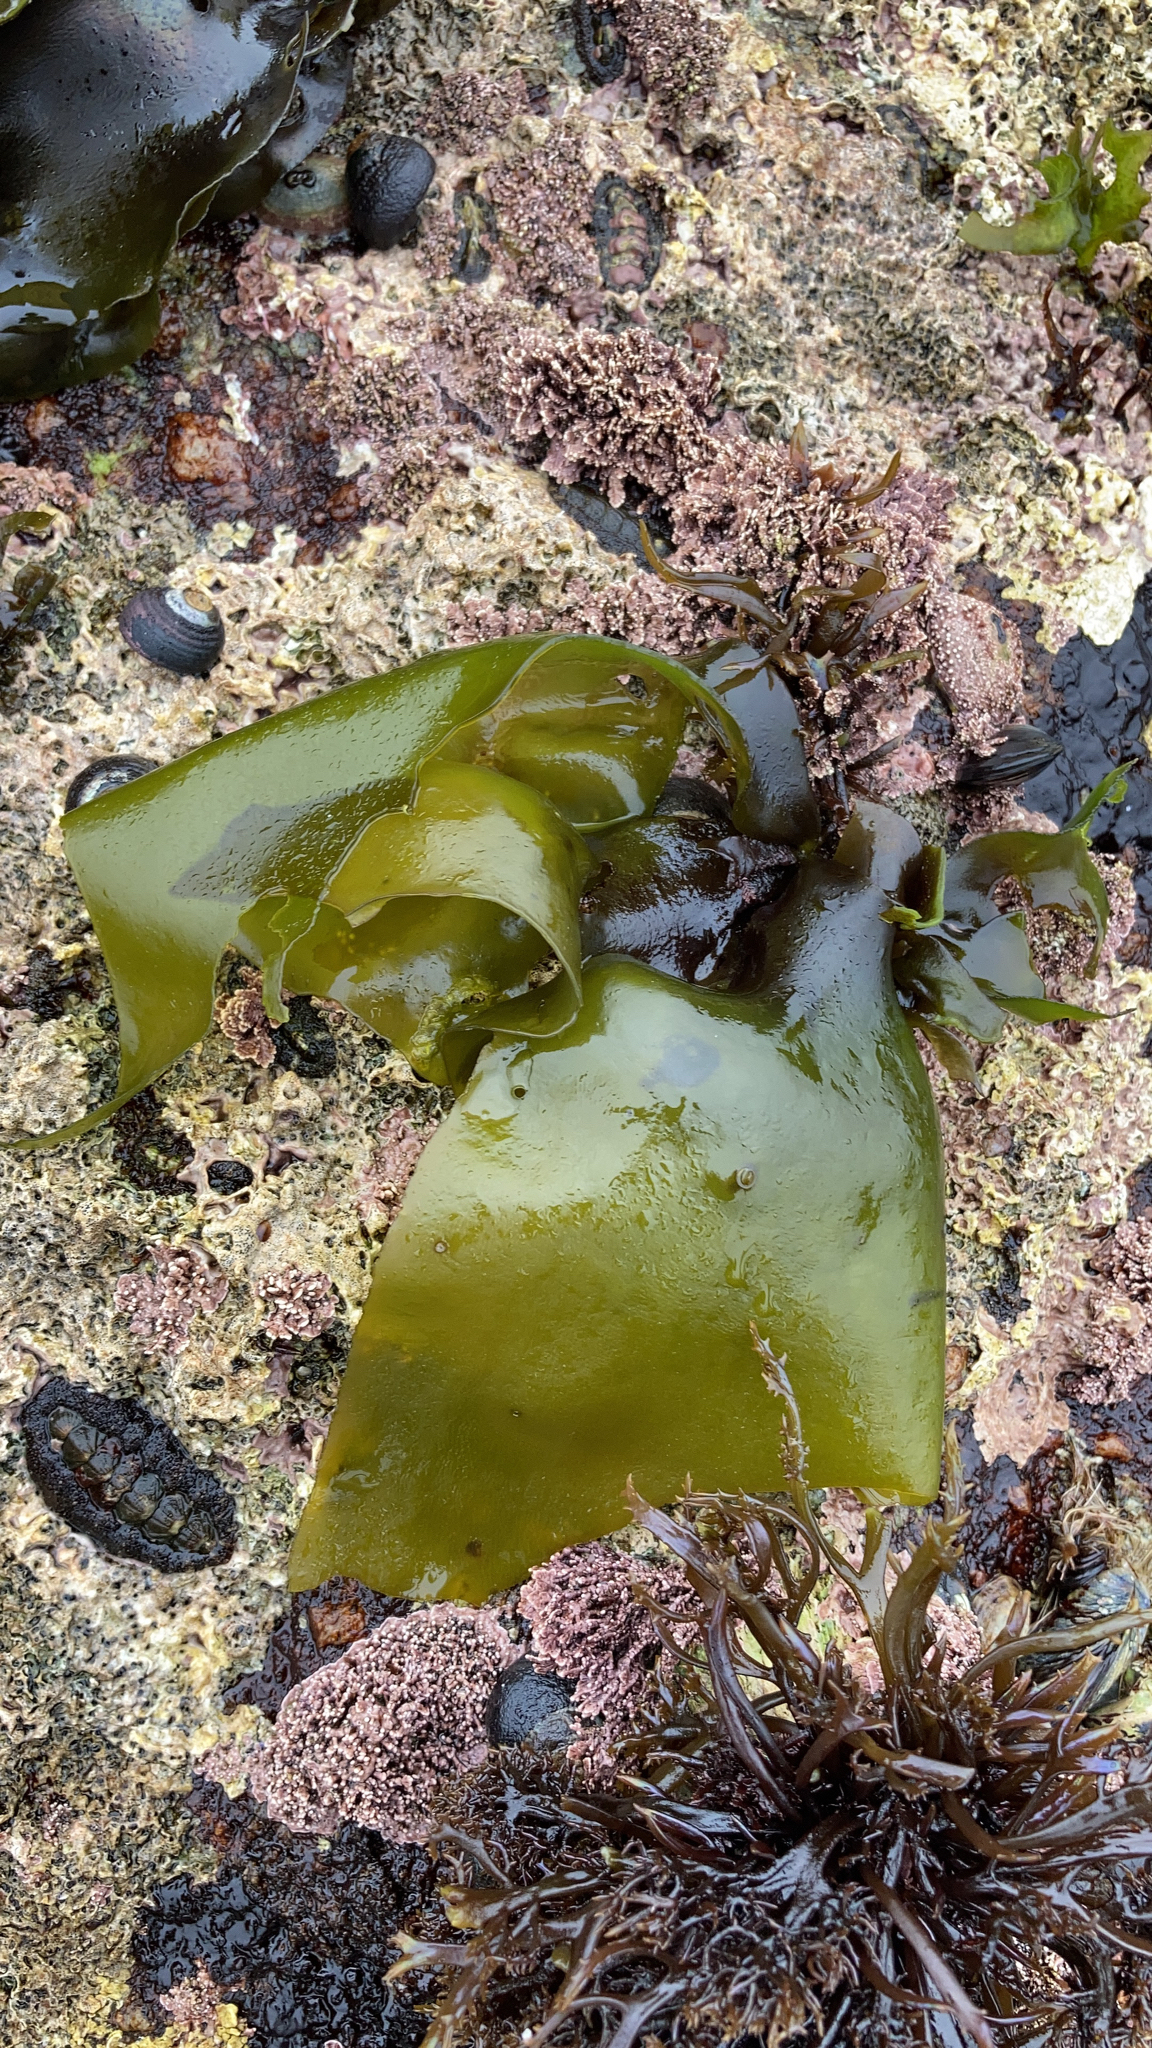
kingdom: Plantae
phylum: Rhodophyta
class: Florideophyceae
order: Gigartinales
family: Gigartinaceae
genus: Mazzaella
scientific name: Mazzaella flaccida
